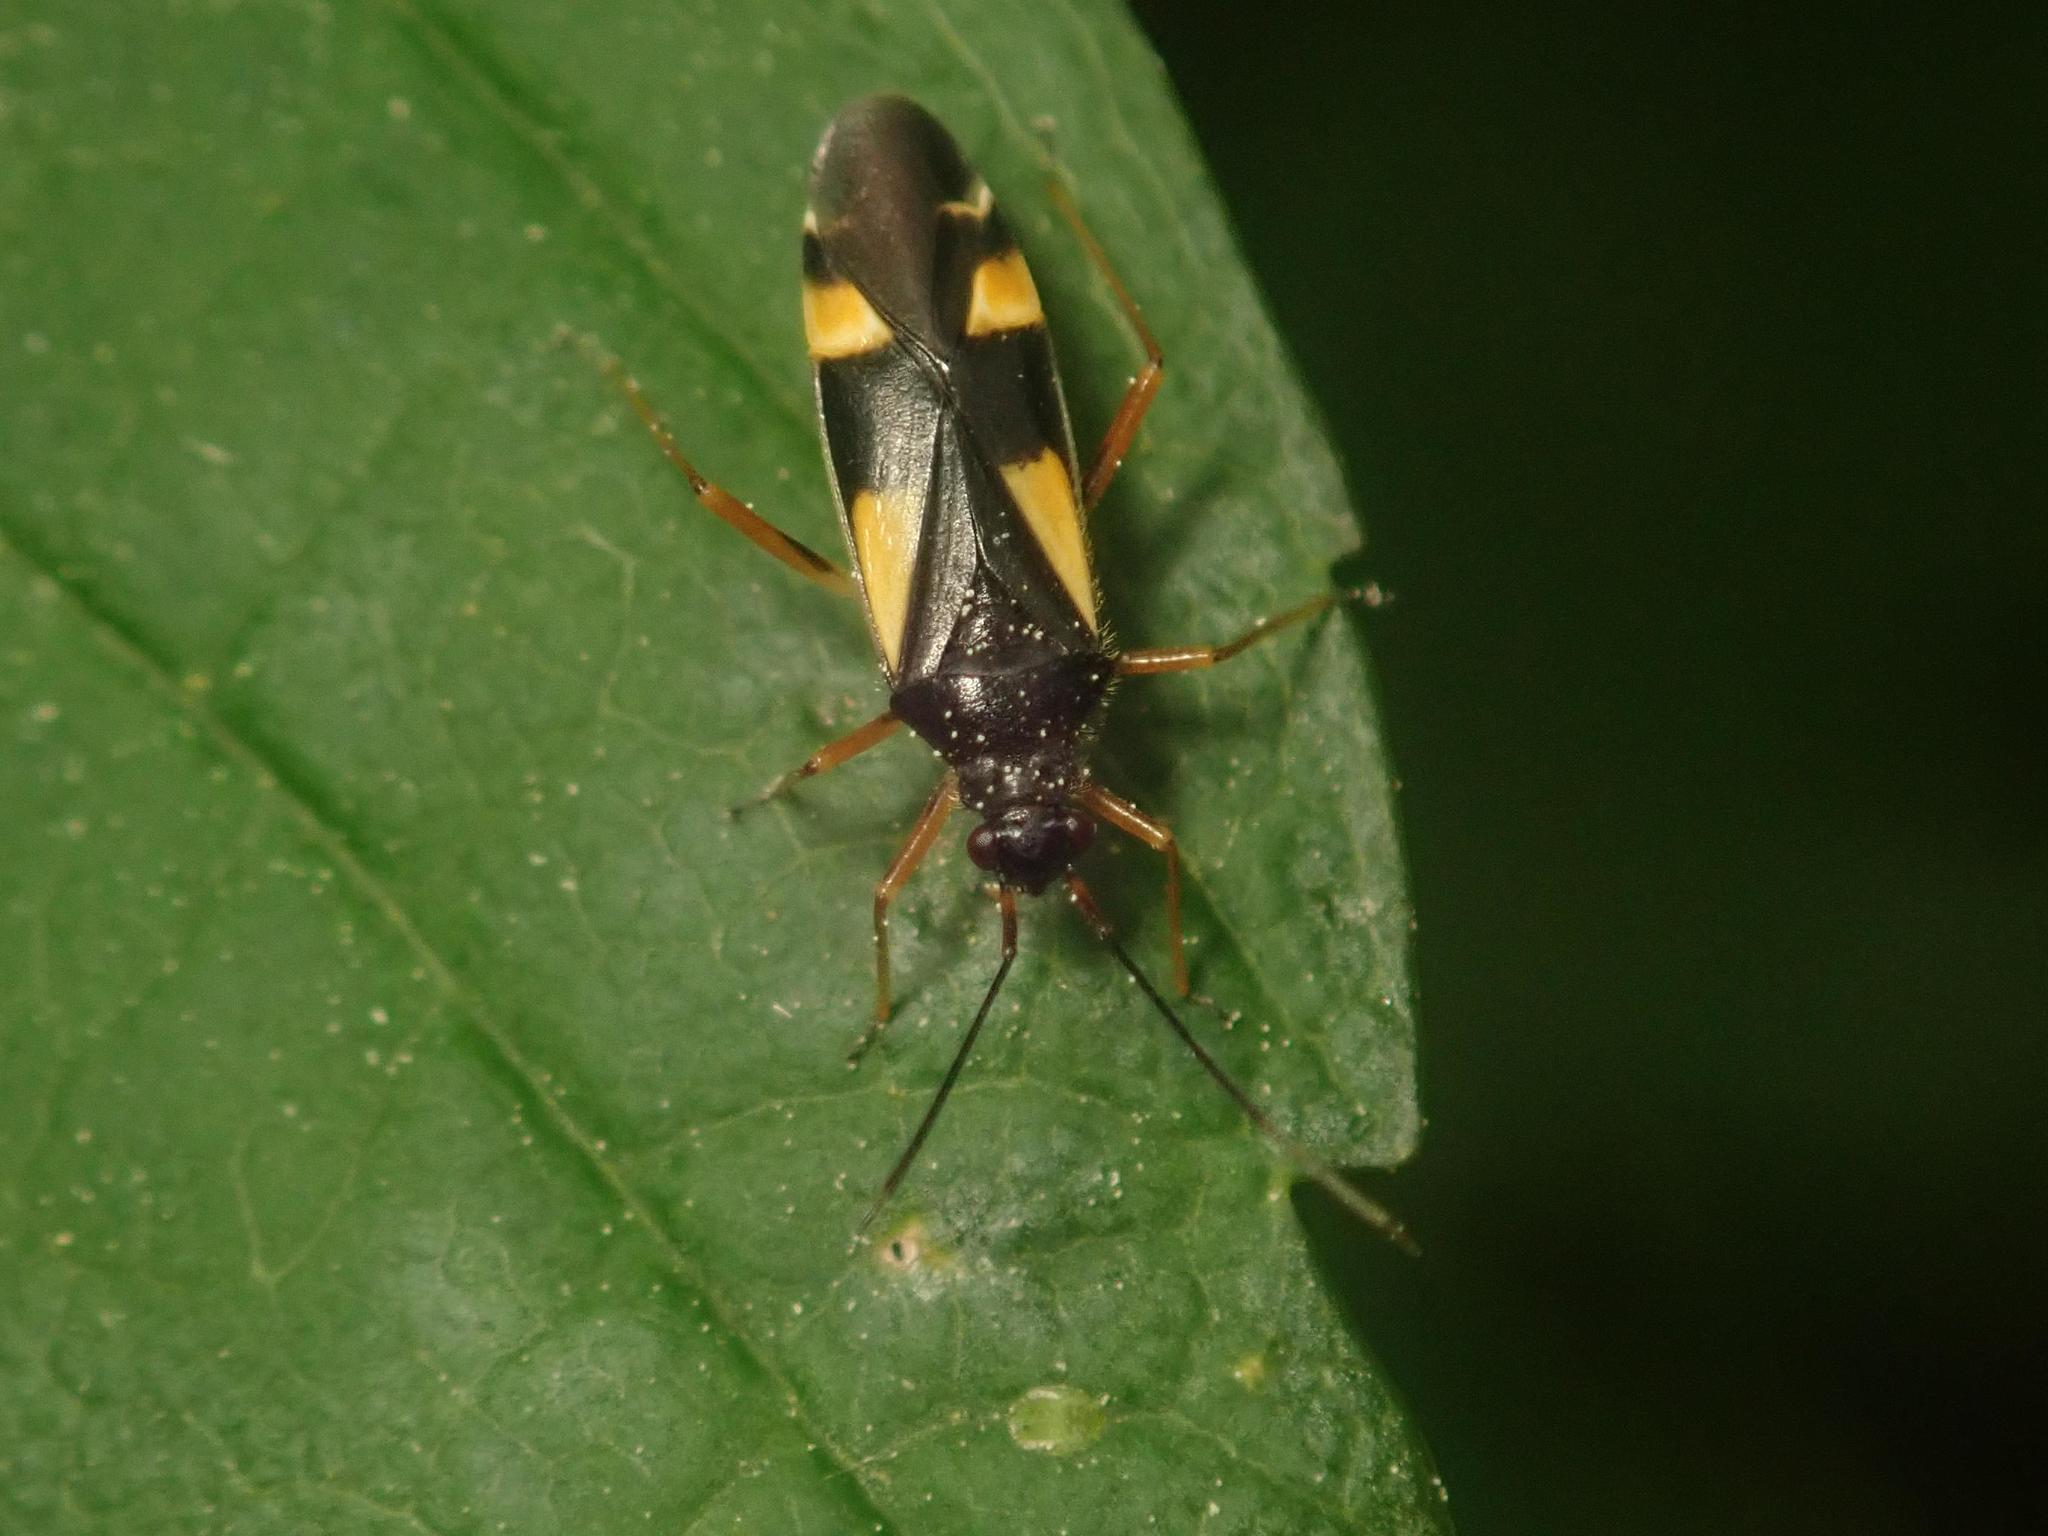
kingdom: Animalia
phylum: Arthropoda
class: Insecta
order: Hemiptera
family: Miridae
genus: Dryophilocoris
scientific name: Dryophilocoris flavoquadrimaculatus
